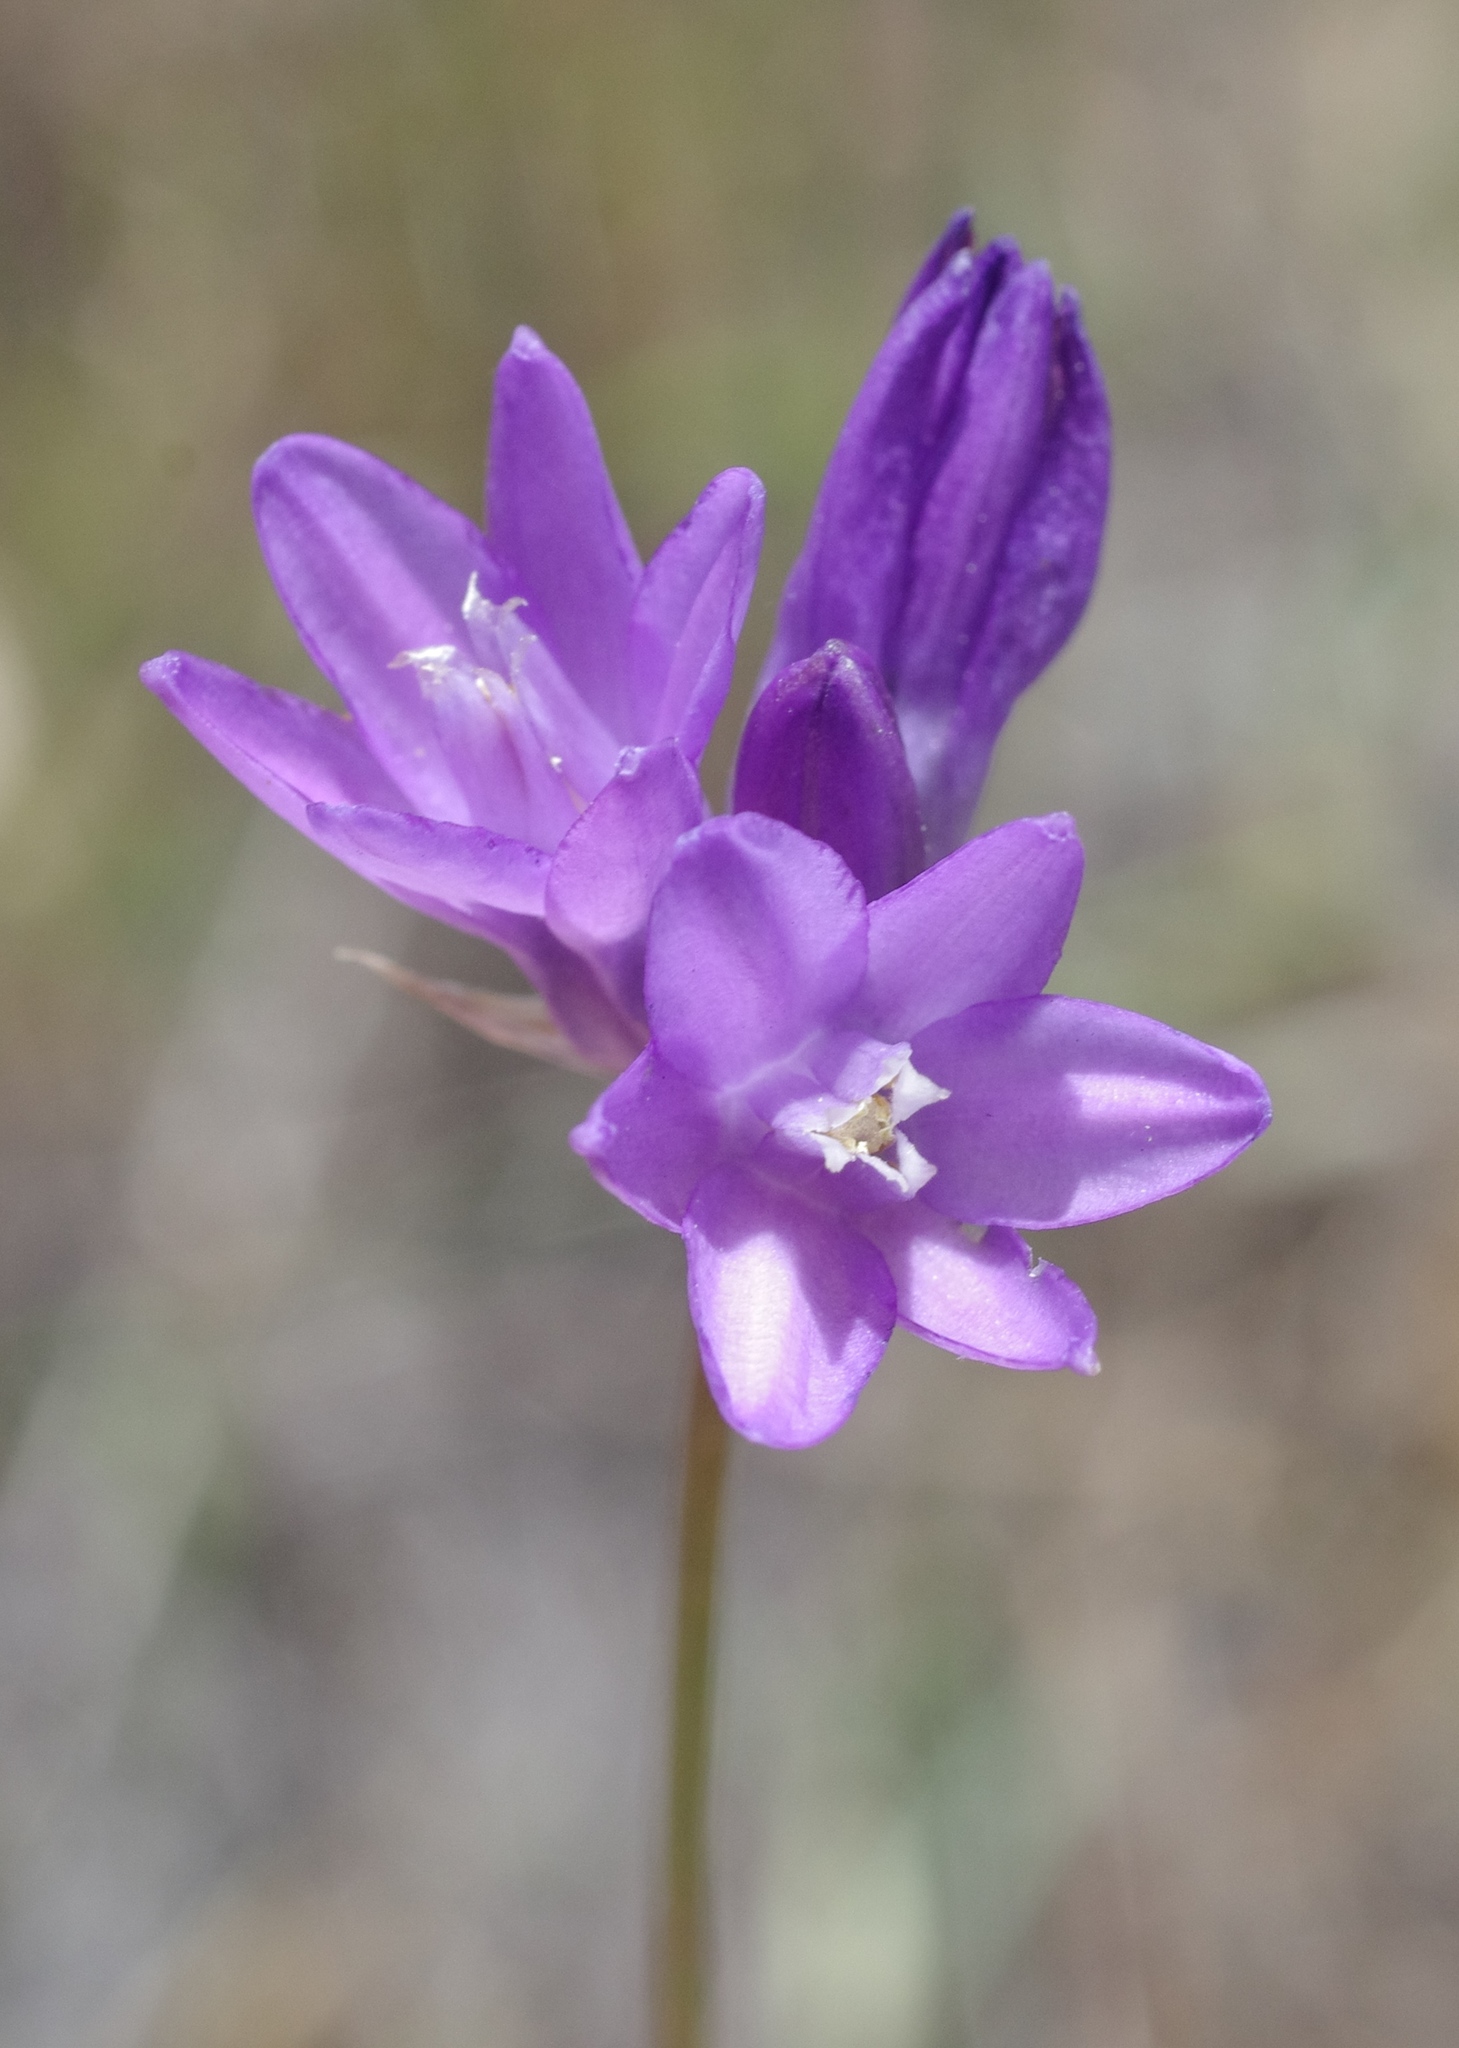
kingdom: Plantae
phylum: Tracheophyta
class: Liliopsida
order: Asparagales
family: Asparagaceae
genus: Dipterostemon
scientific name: Dipterostemon capitatus
